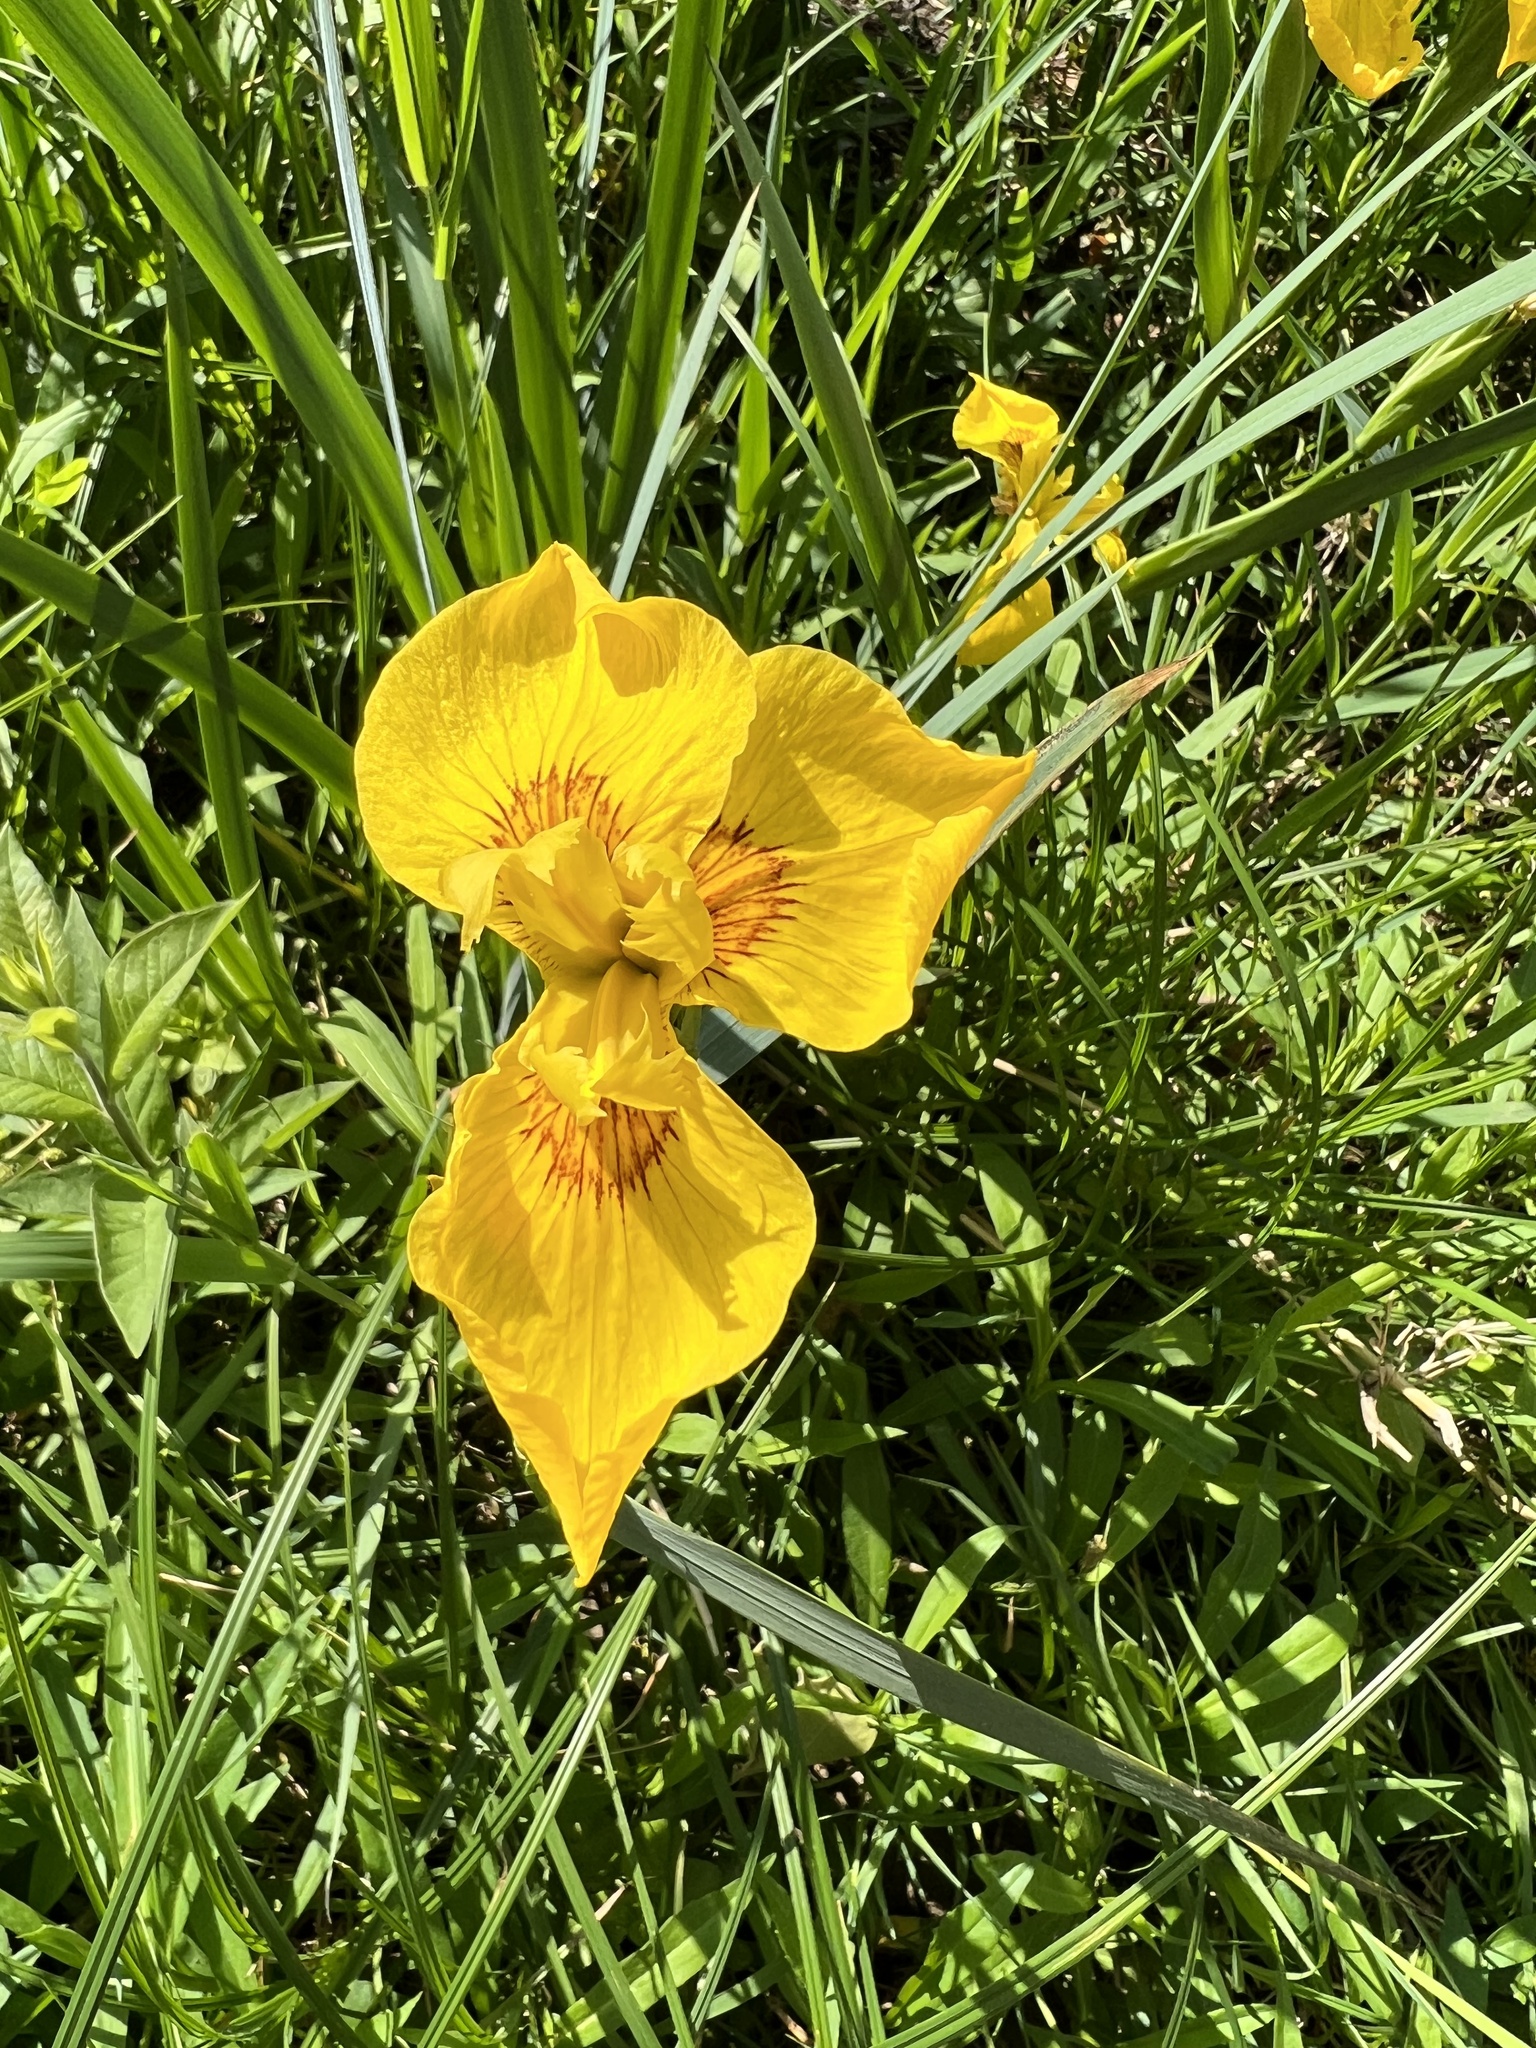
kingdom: Plantae
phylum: Tracheophyta
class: Liliopsida
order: Asparagales
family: Iridaceae
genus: Iris
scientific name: Iris pseudacorus
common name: Yellow flag
